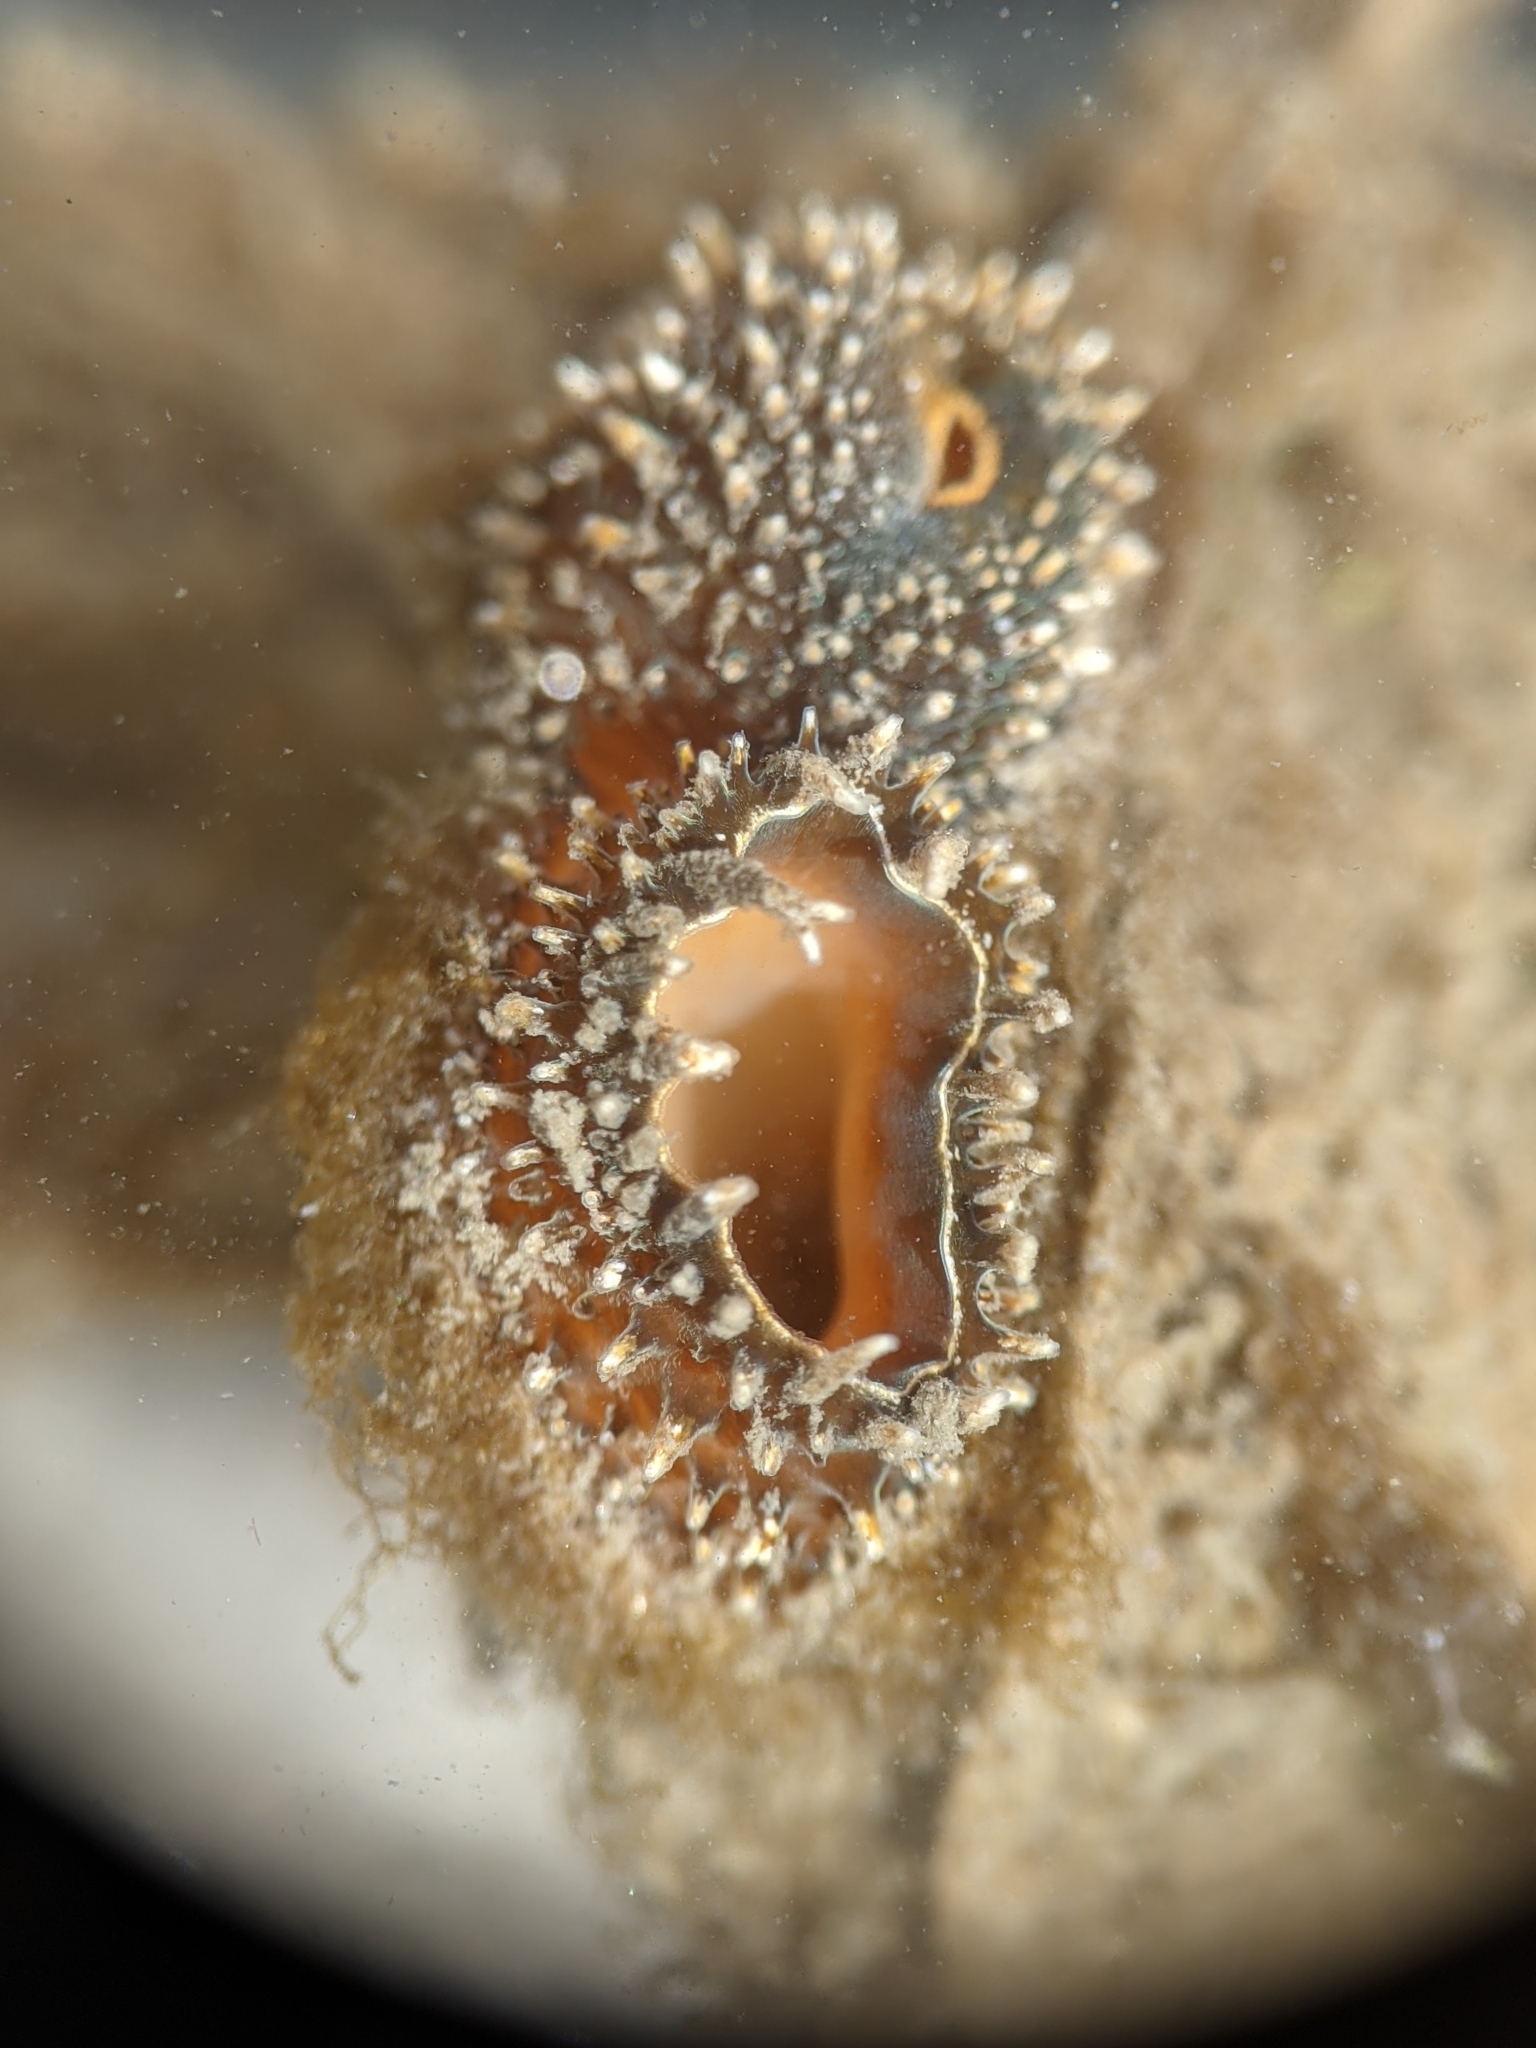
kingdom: Animalia
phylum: Mollusca
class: Bivalvia
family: Lyonsiidae
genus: Entodesma
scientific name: Entodesma navicula
